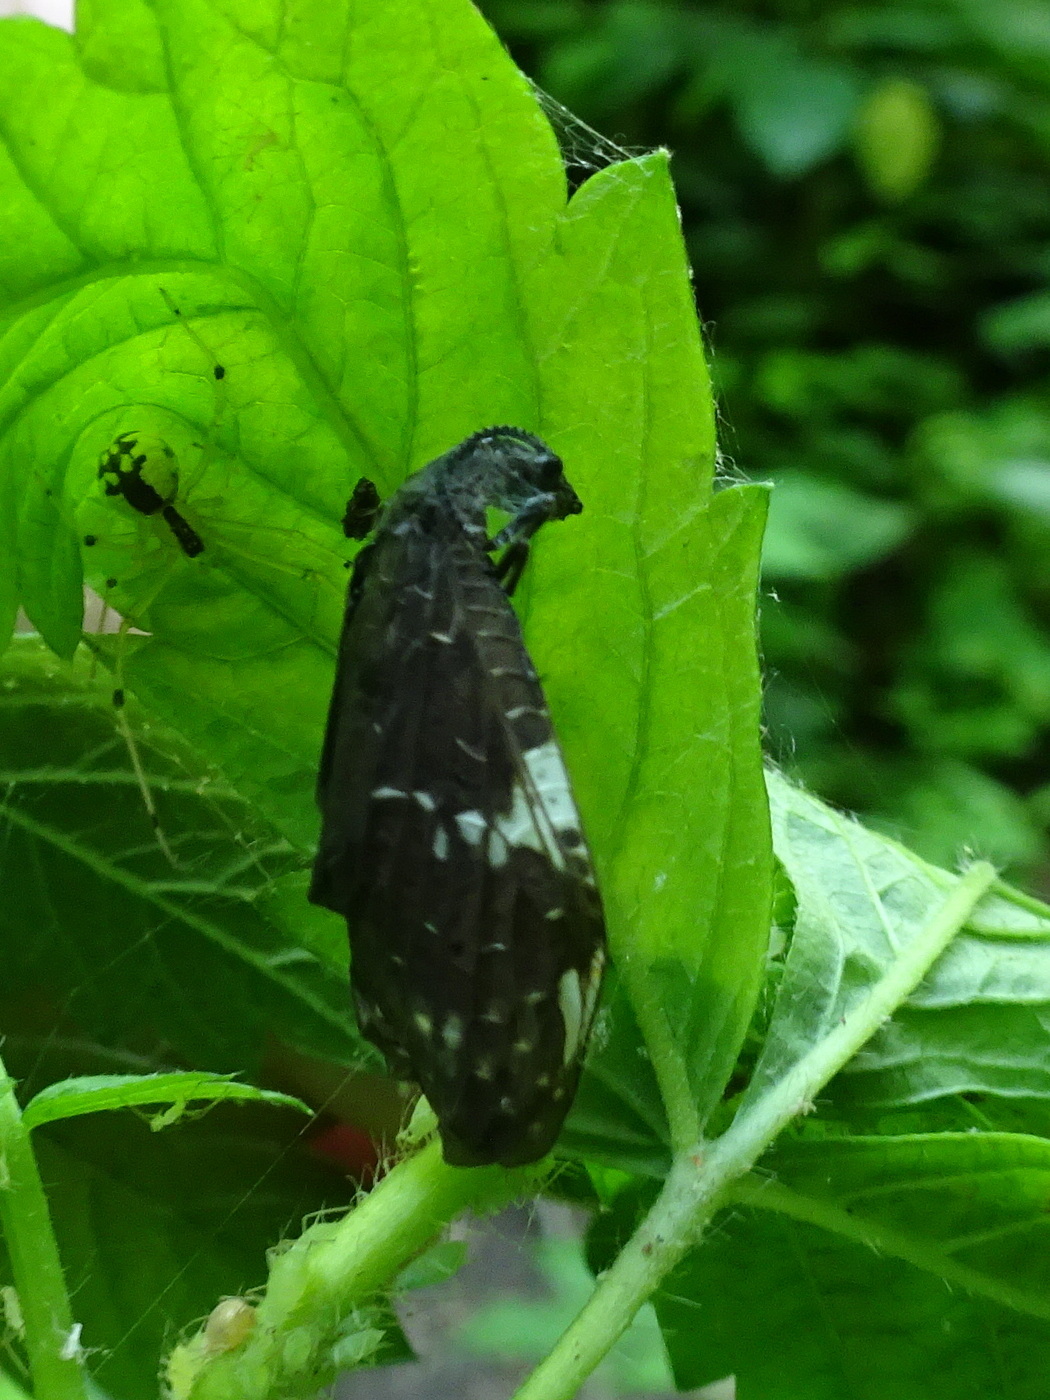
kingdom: Animalia
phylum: Arthropoda
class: Insecta
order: Megaloptera
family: Corydalidae
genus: Nigronia
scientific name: Nigronia serricornis
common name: Serrate dark fishfly
